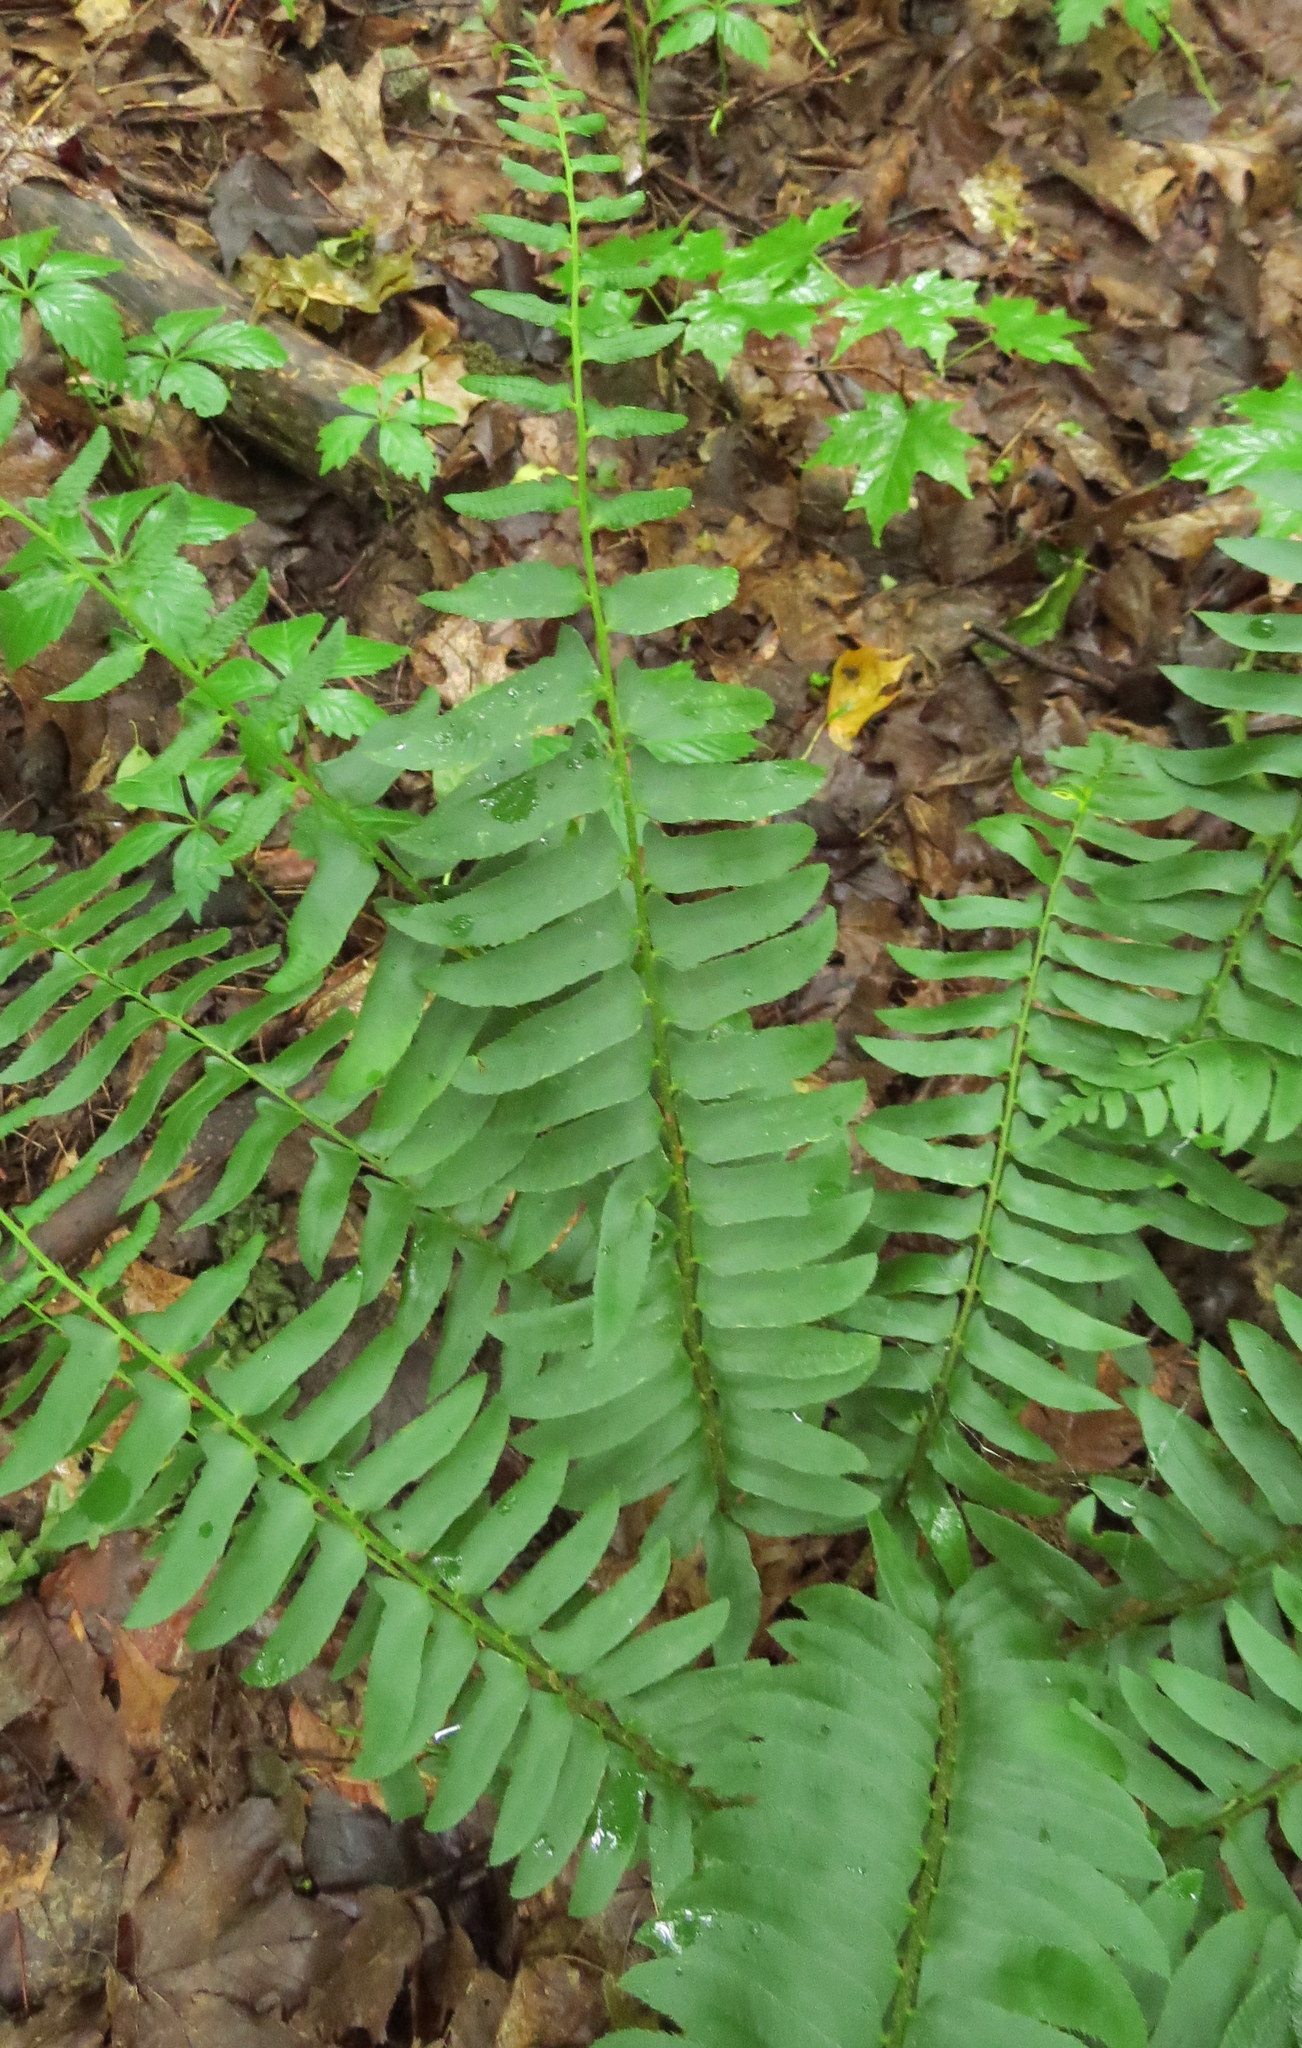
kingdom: Plantae
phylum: Tracheophyta
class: Polypodiopsida
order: Polypodiales
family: Dryopteridaceae
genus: Polystichum
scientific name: Polystichum acrostichoides
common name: Christmas fern
